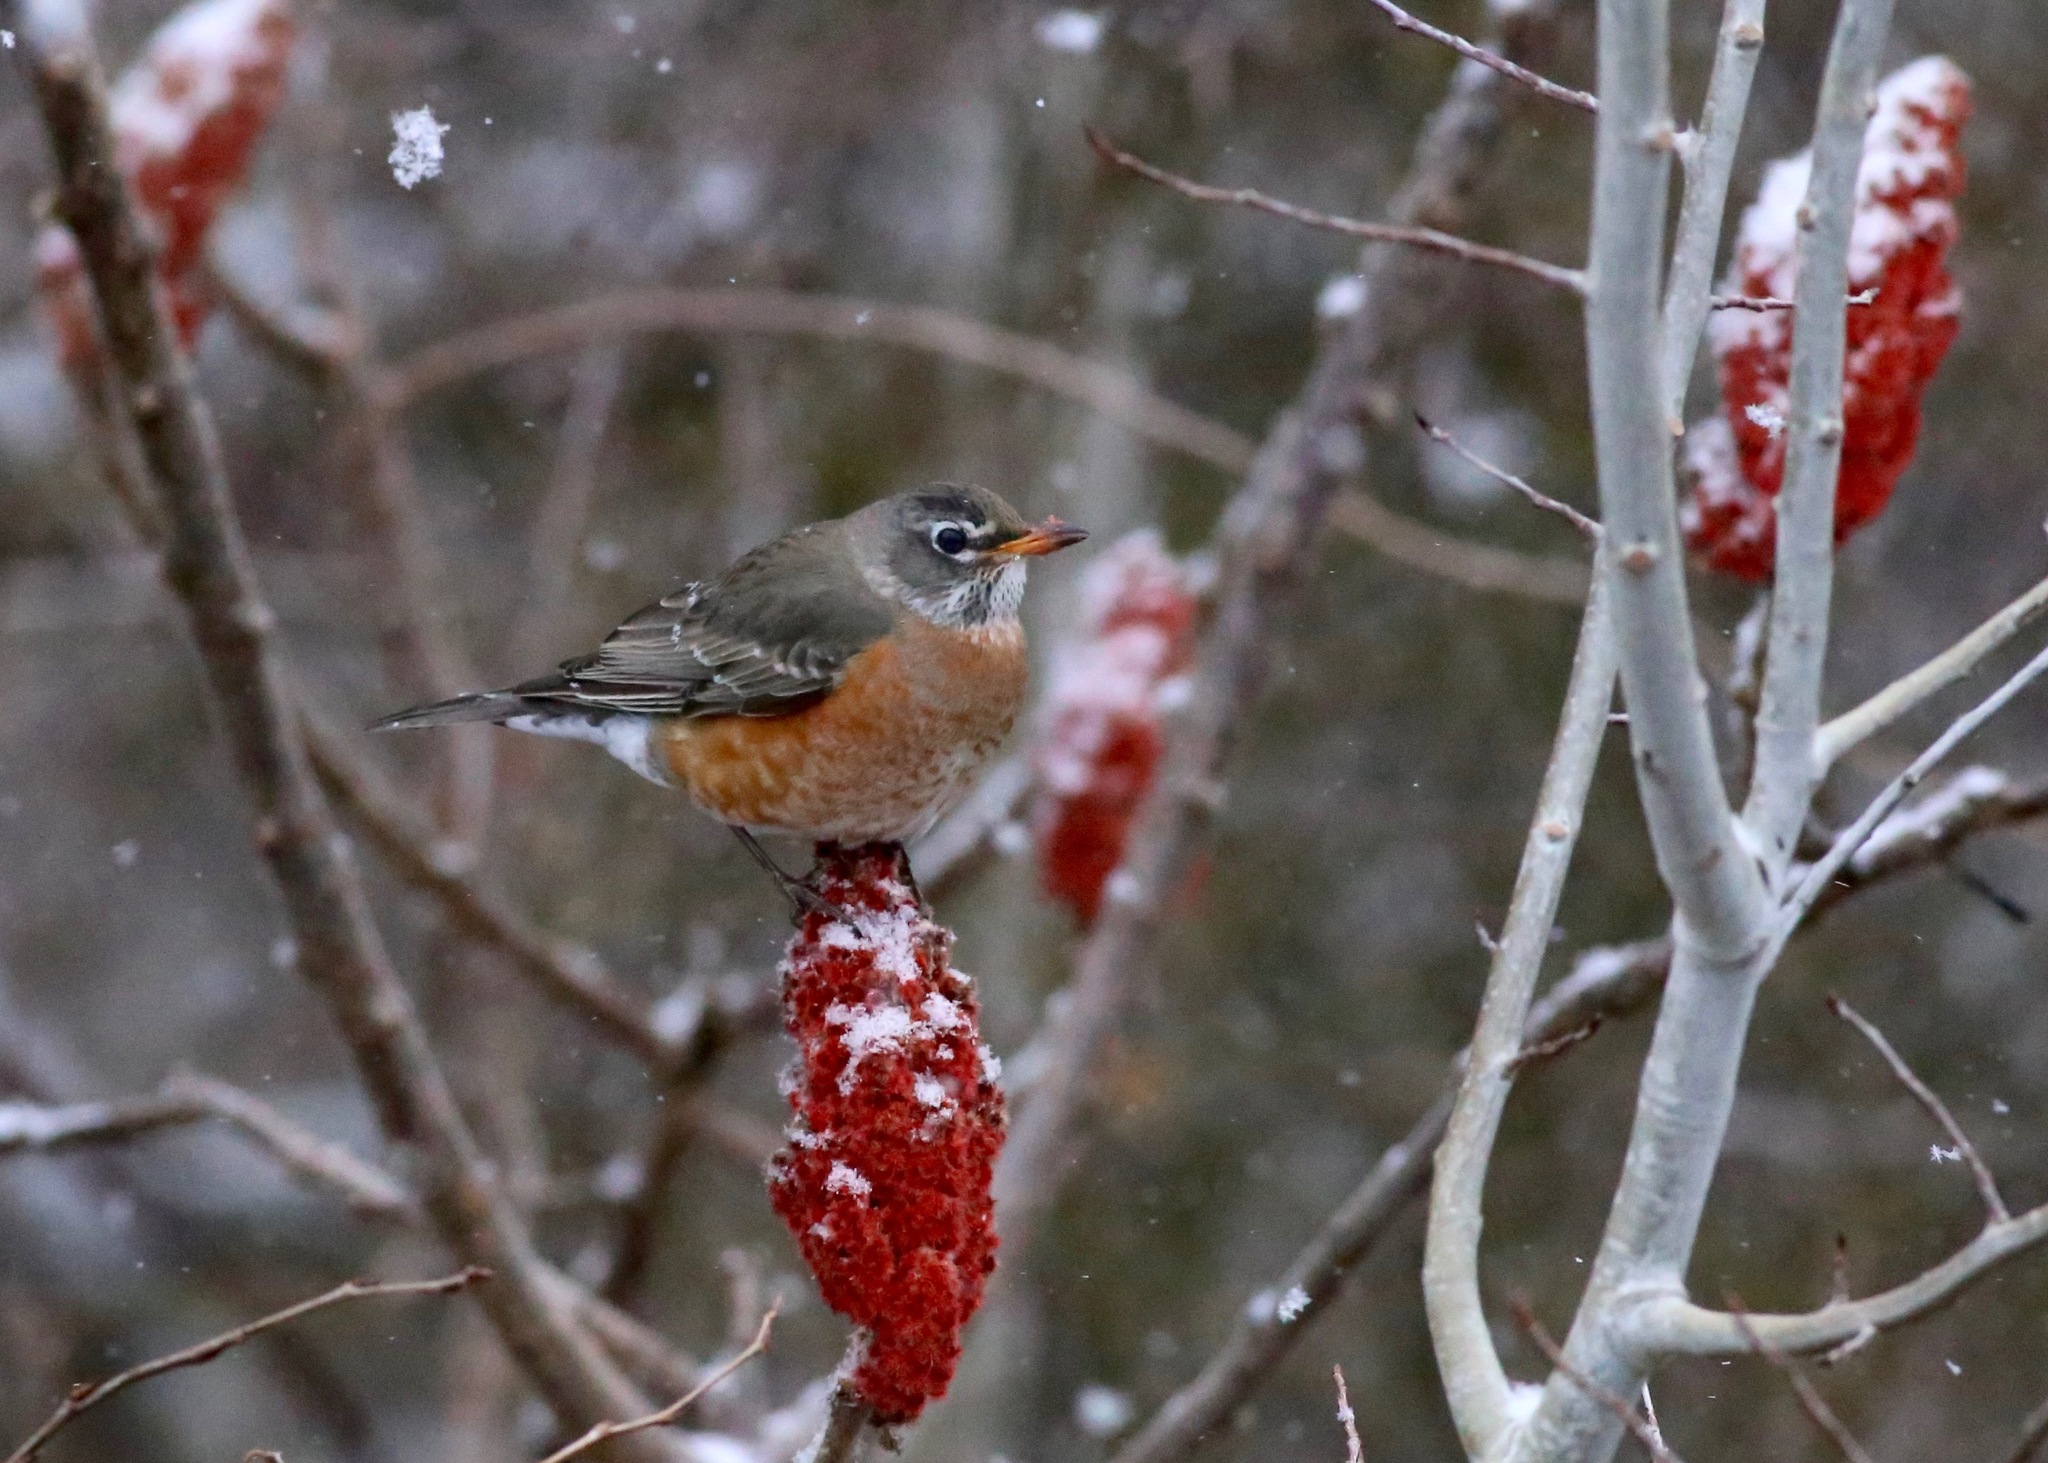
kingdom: Animalia
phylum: Chordata
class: Aves
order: Passeriformes
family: Turdidae
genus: Turdus
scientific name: Turdus migratorius
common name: American robin
